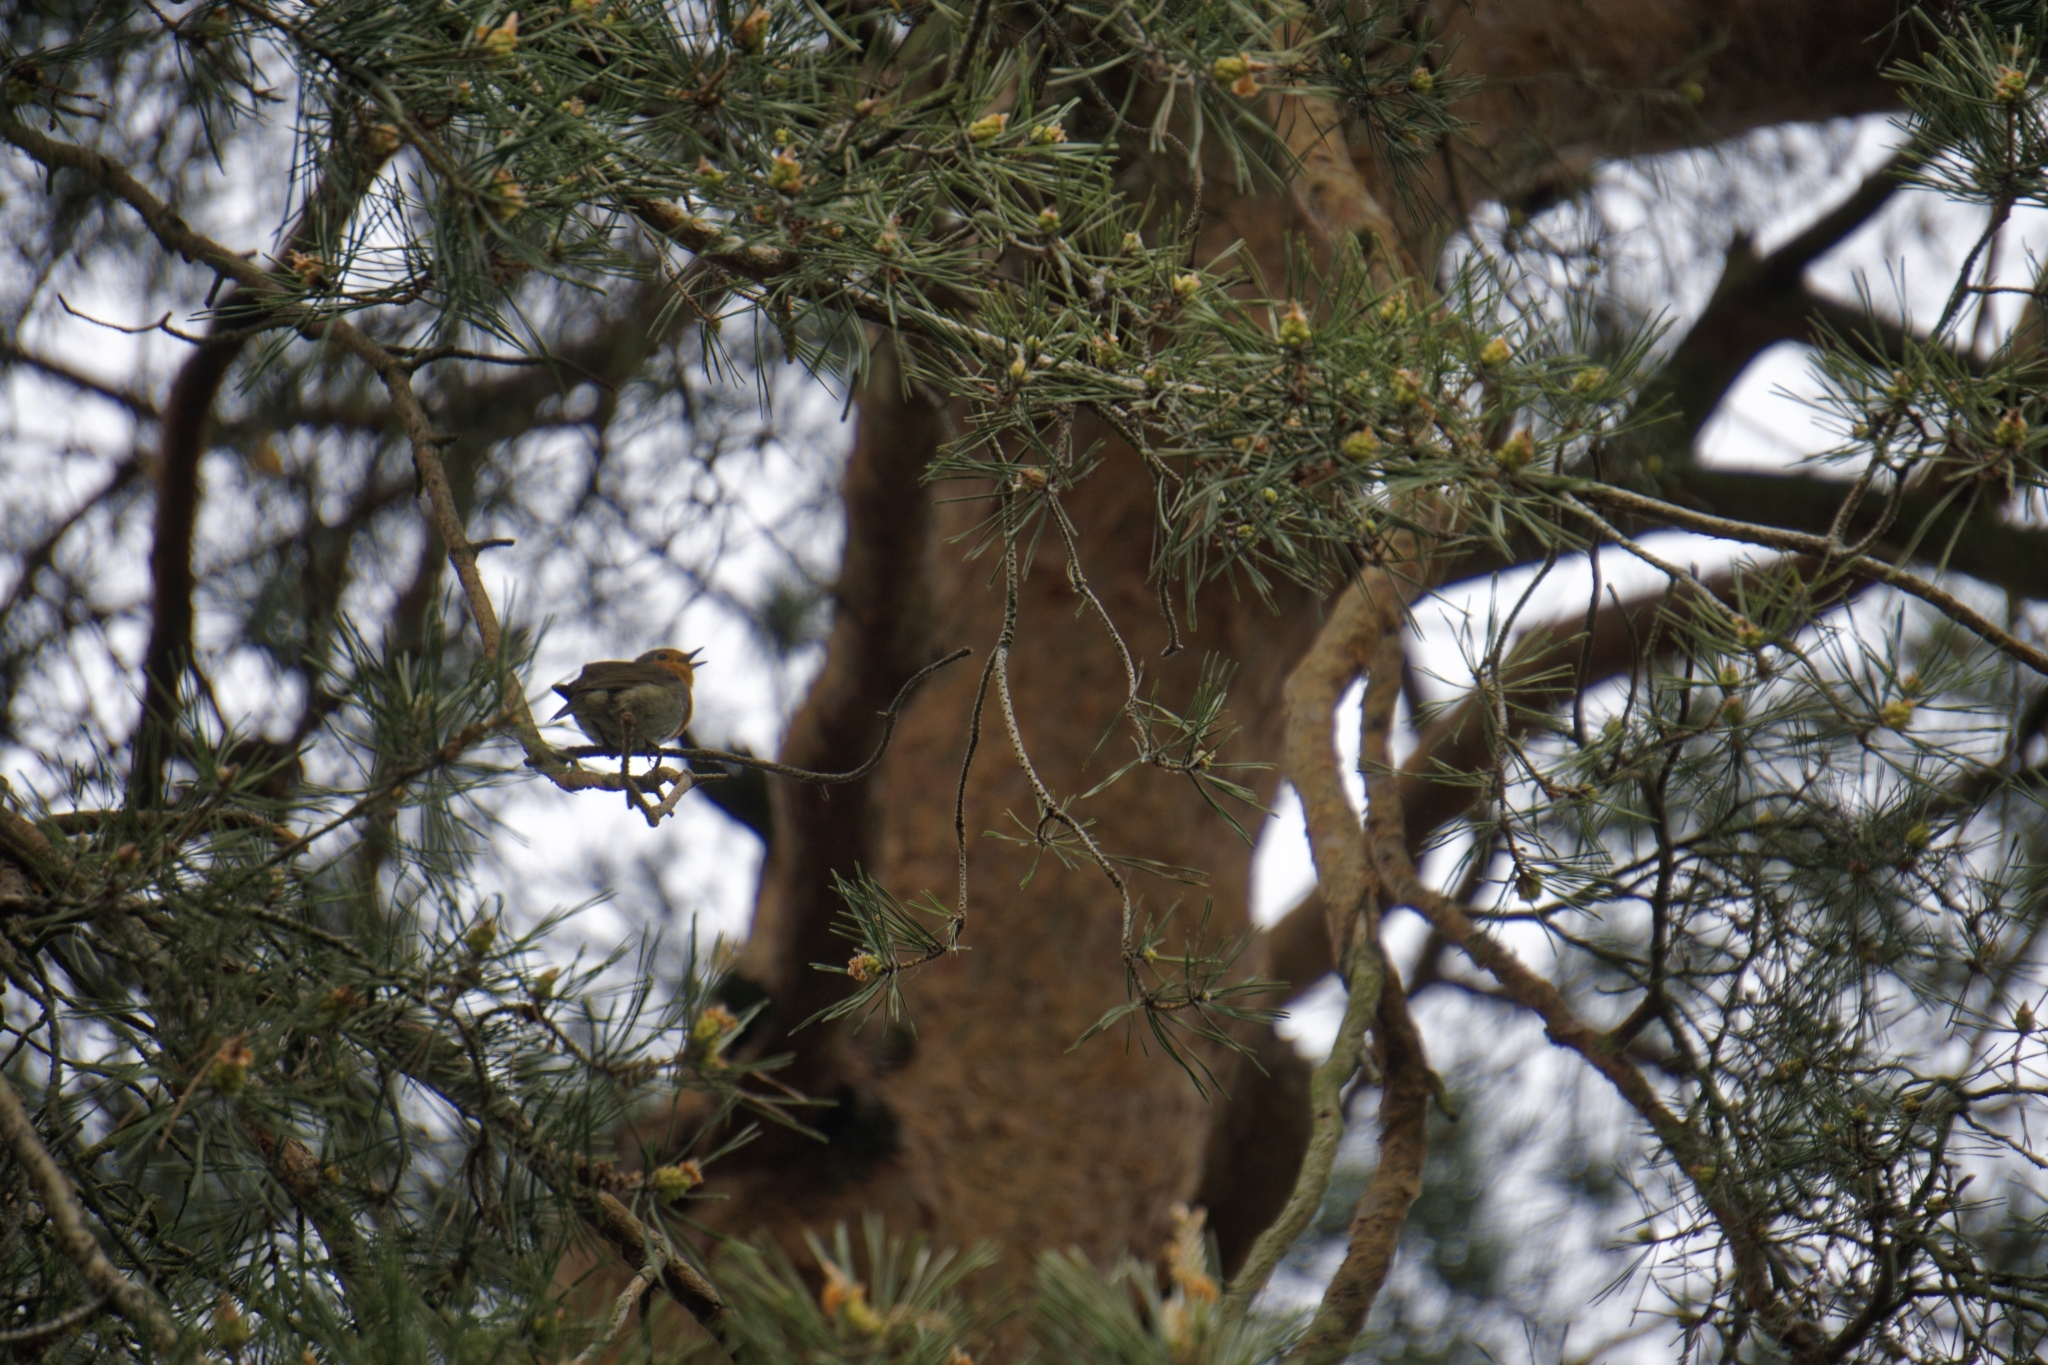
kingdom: Animalia
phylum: Chordata
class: Aves
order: Passeriformes
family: Muscicapidae
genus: Erithacus
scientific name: Erithacus rubecula
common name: European robin
